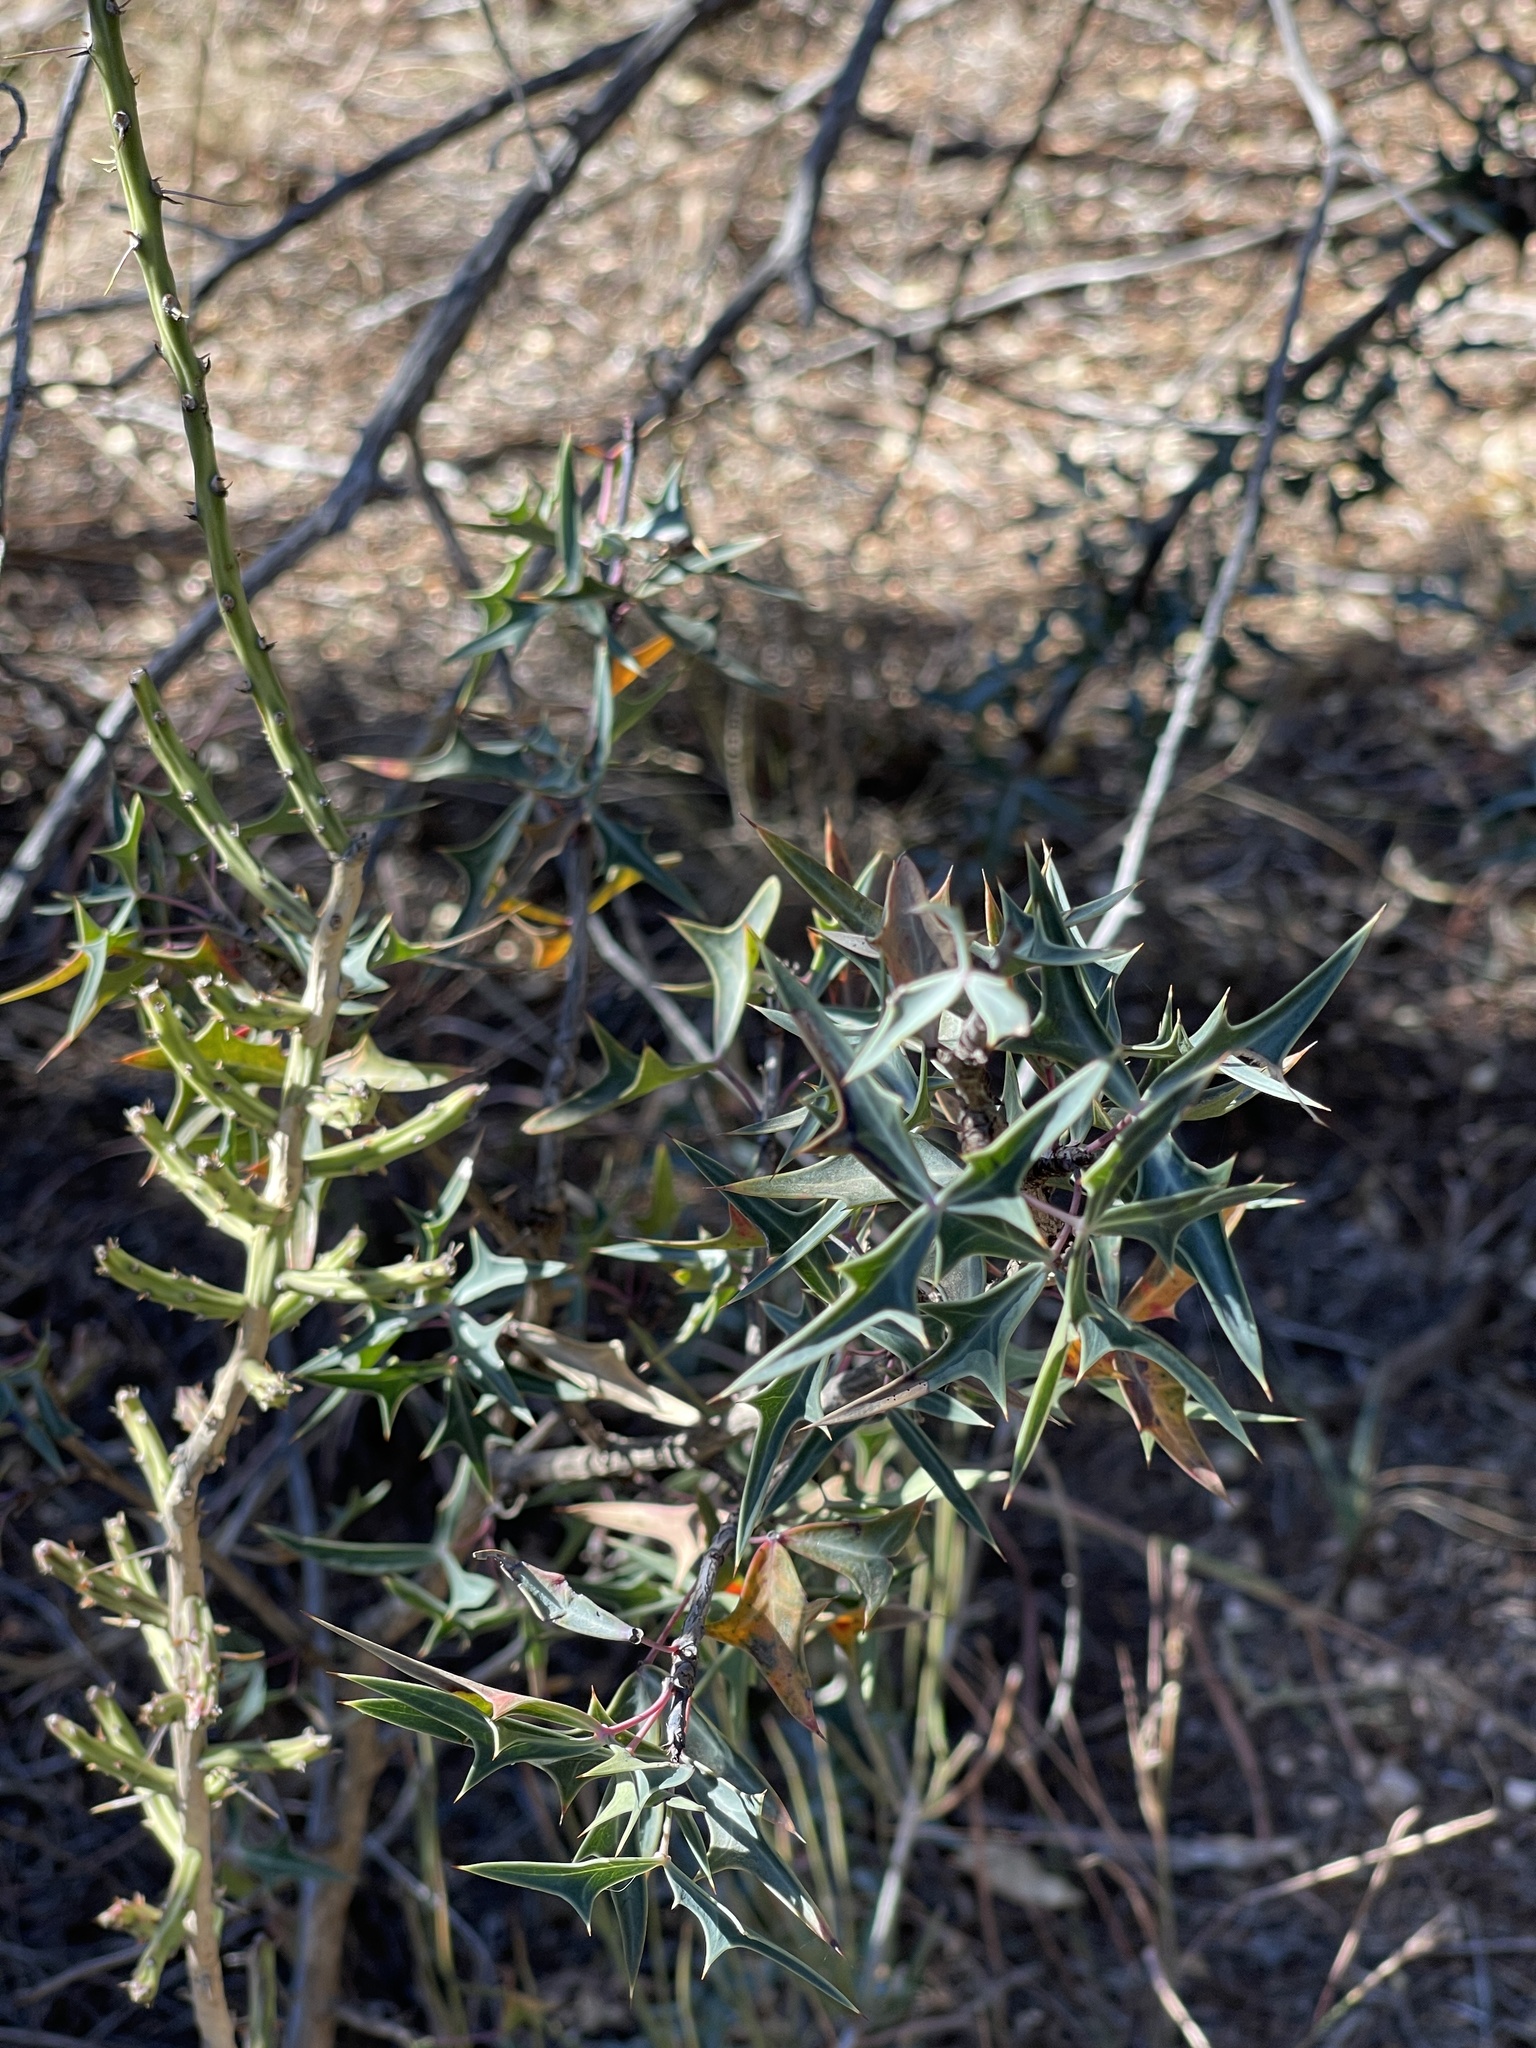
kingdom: Plantae
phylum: Tracheophyta
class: Magnoliopsida
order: Ranunculales
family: Berberidaceae
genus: Alloberberis
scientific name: Alloberberis trifoliolata
